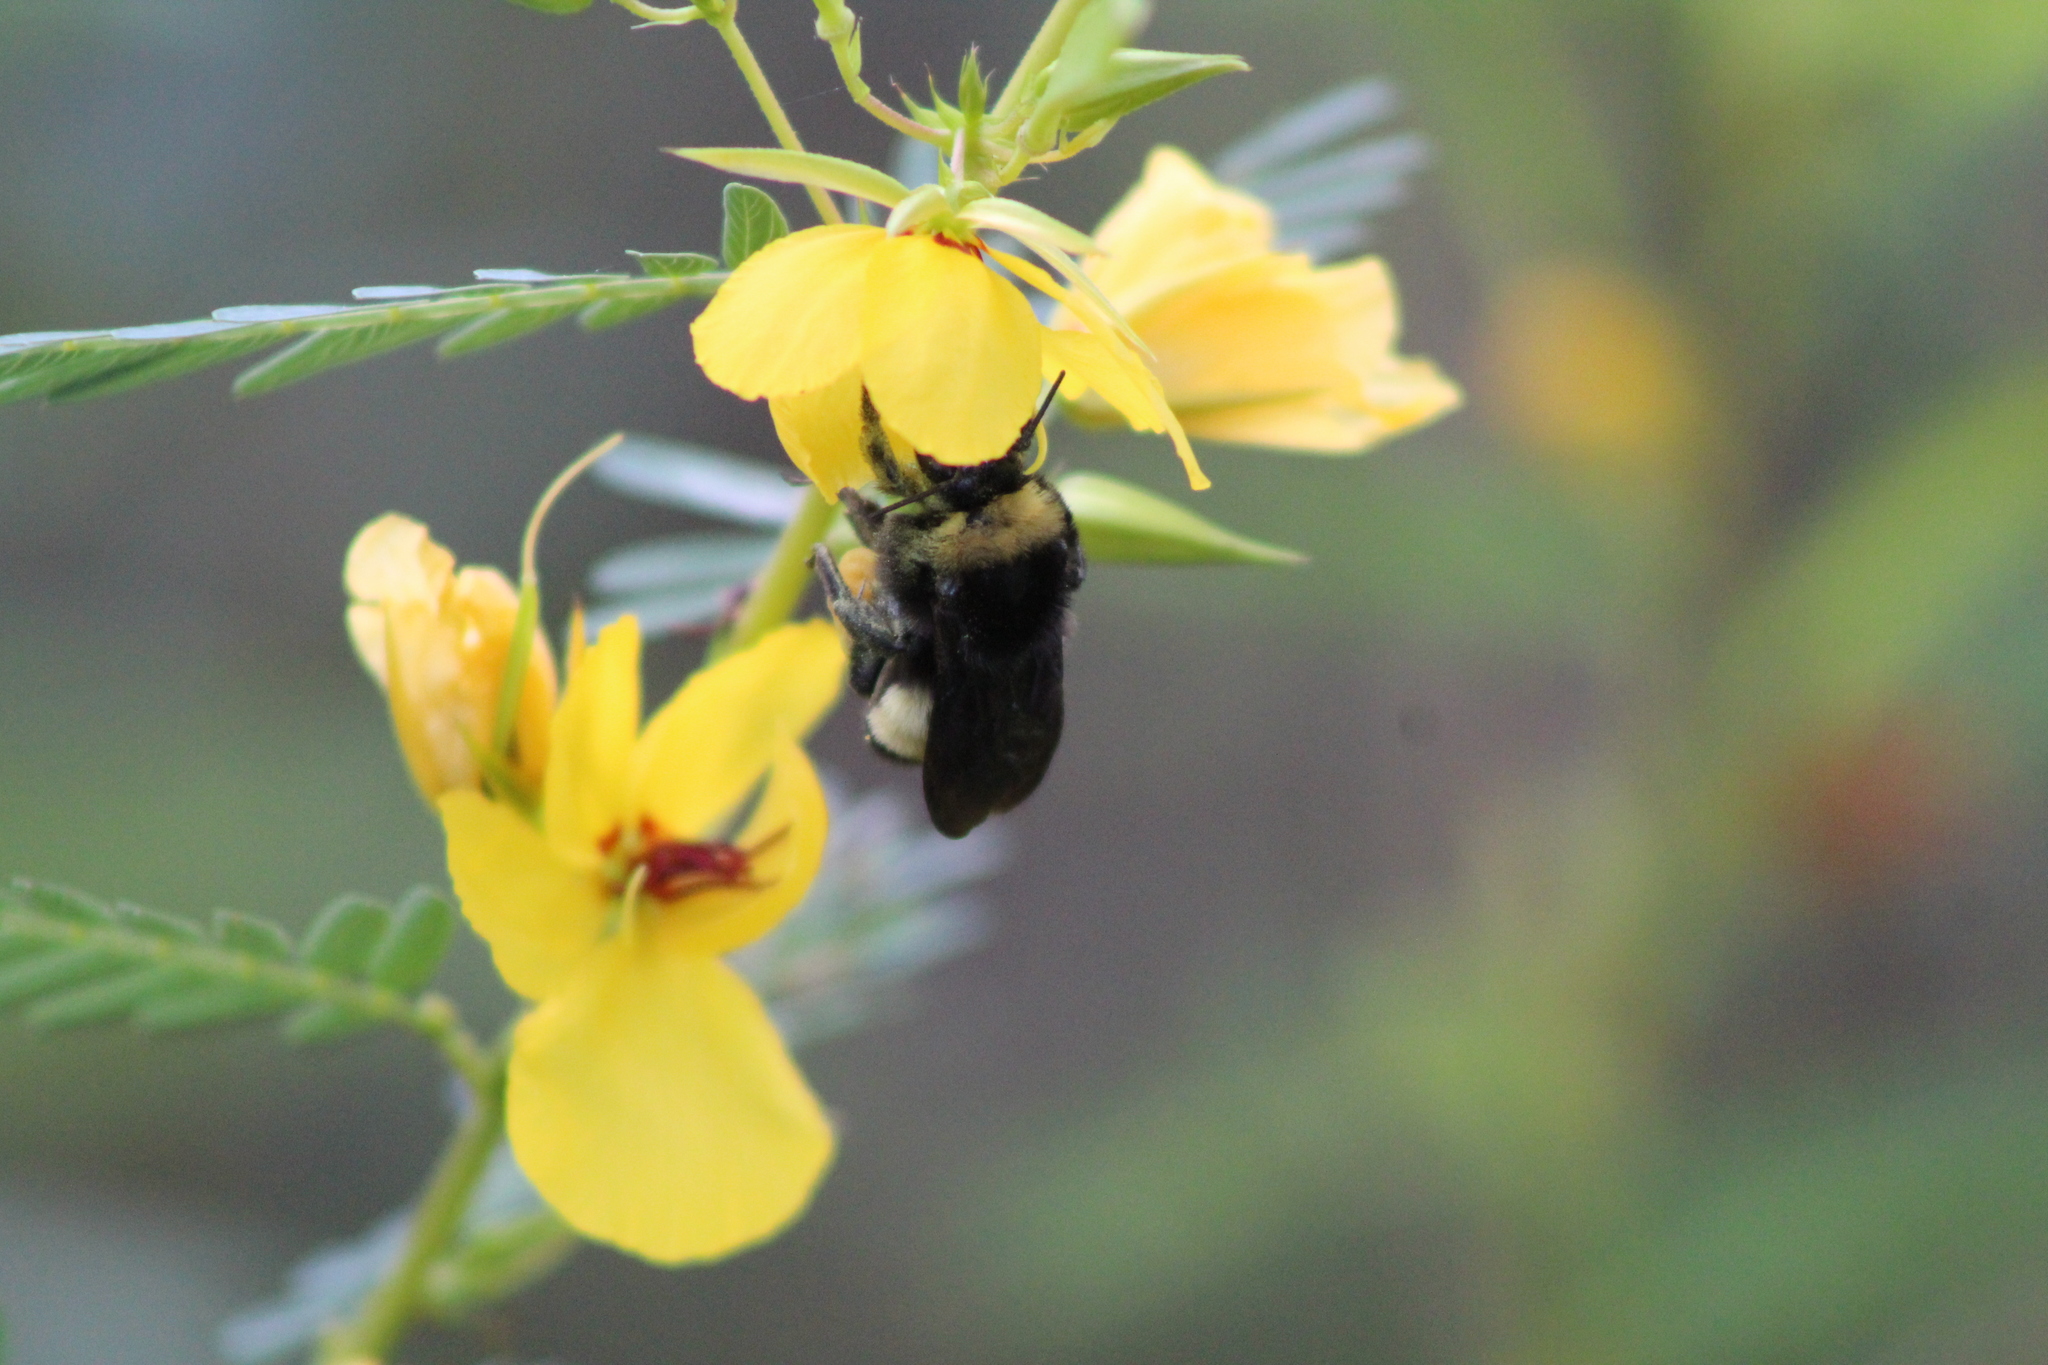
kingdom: Animalia
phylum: Arthropoda
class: Insecta
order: Hymenoptera
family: Apidae
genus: Bombus
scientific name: Bombus pensylvanicus
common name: Bumble bee
